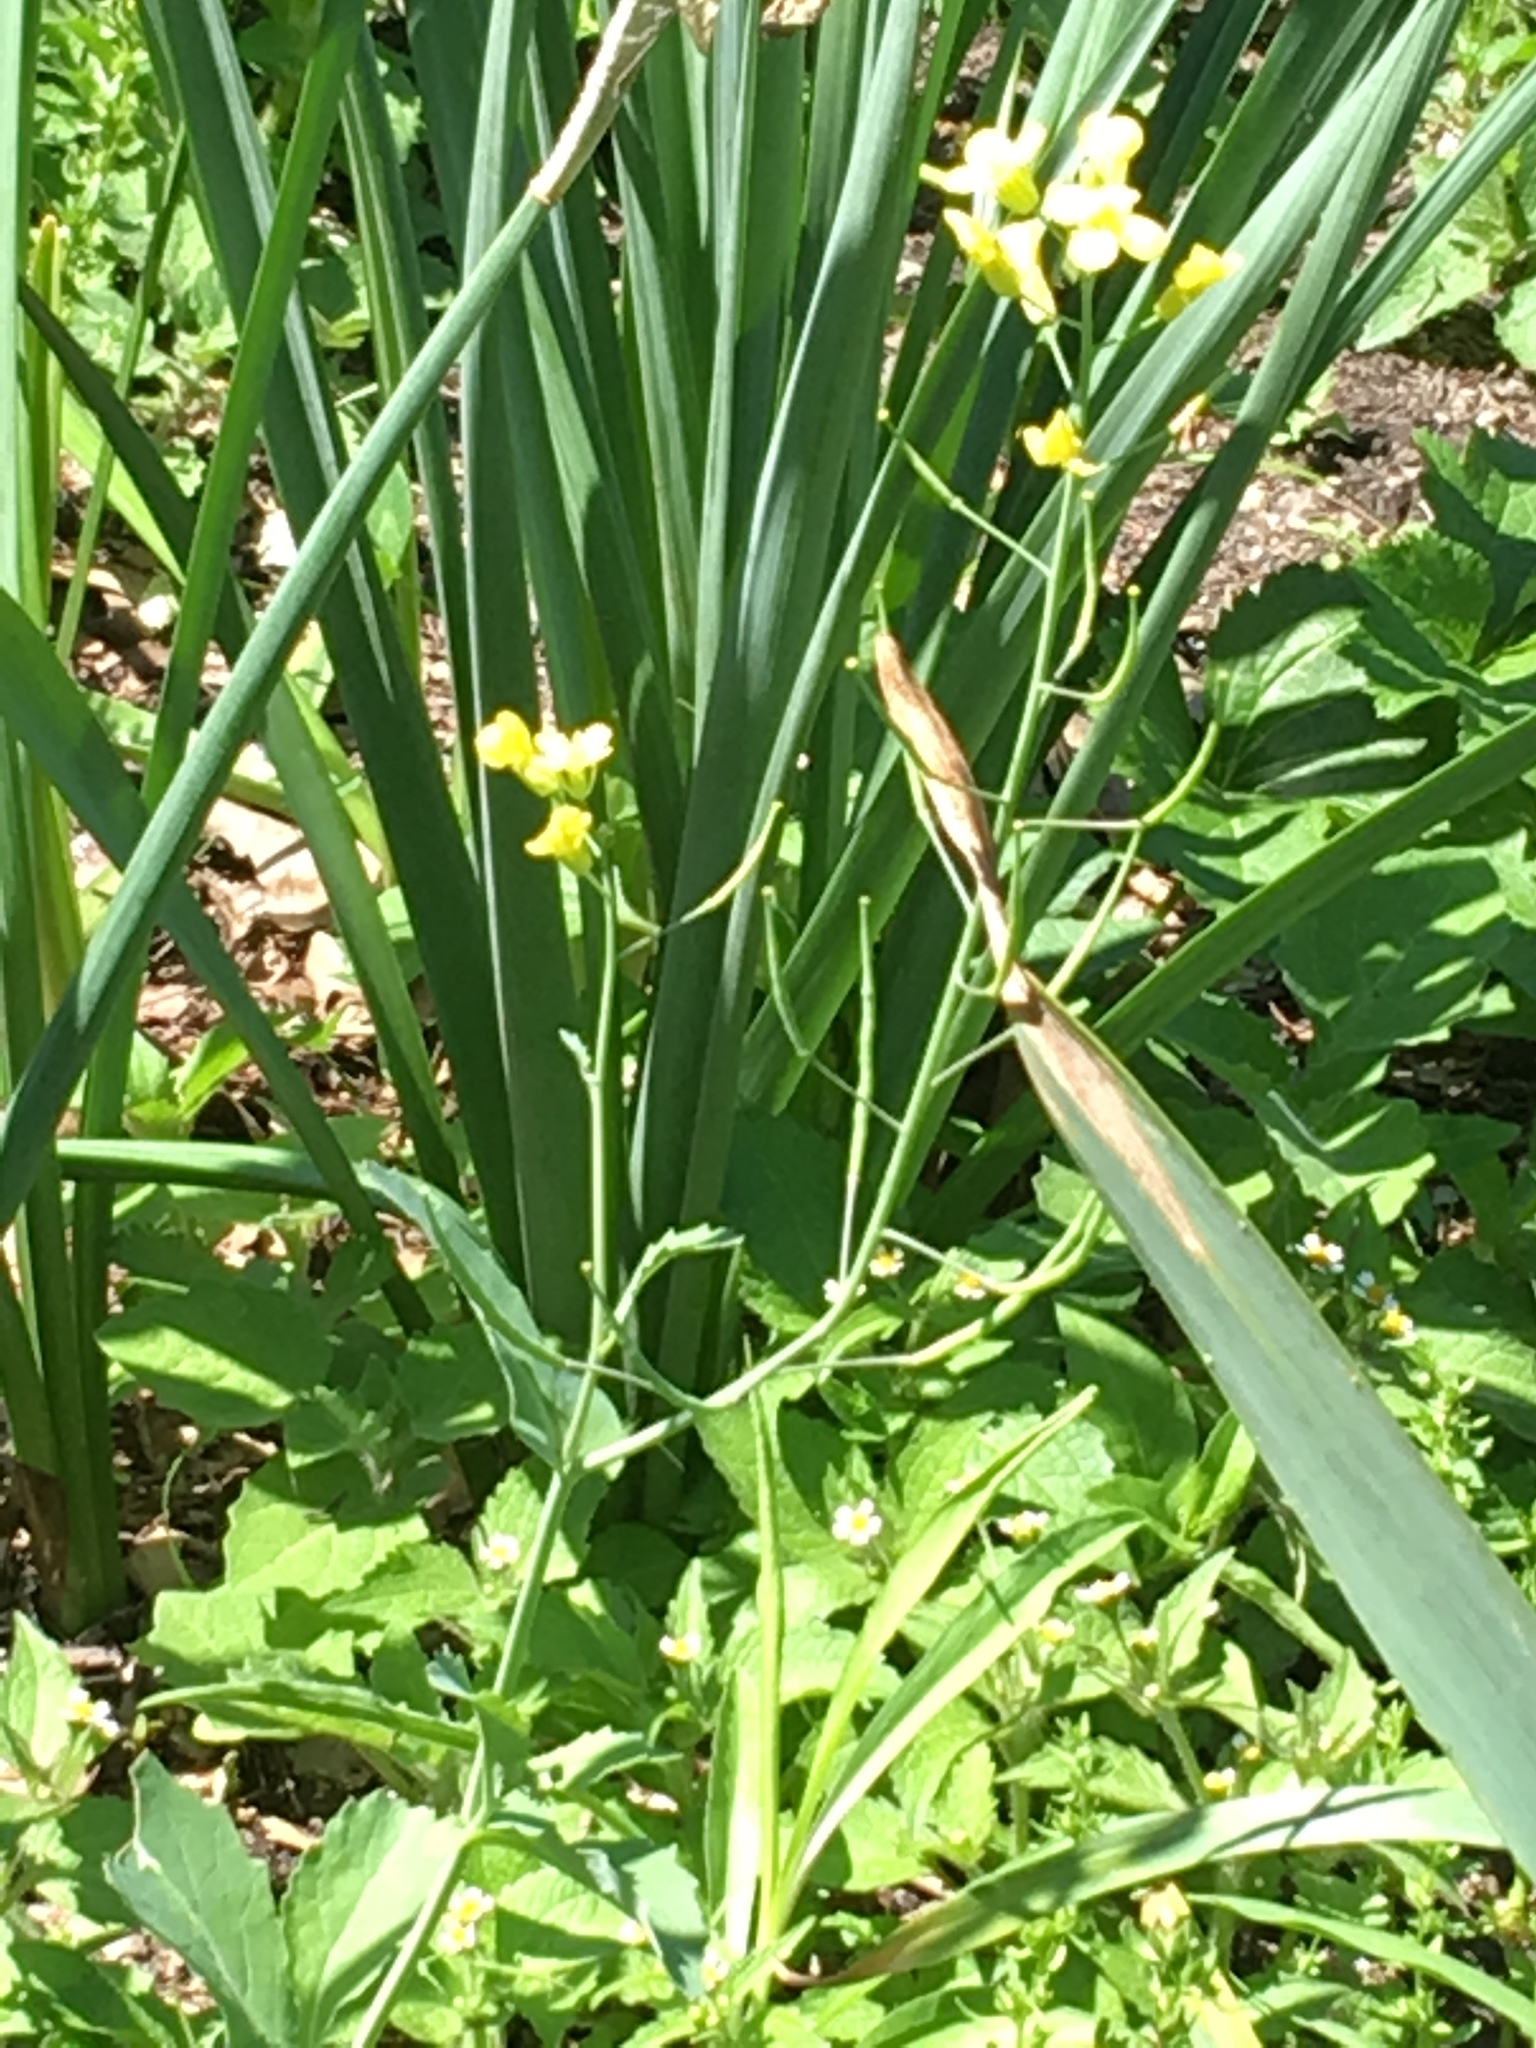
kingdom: Plantae
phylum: Tracheophyta
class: Magnoliopsida
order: Brassicales
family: Brassicaceae
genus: Brassica
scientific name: Brassica rapa
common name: Field mustard
